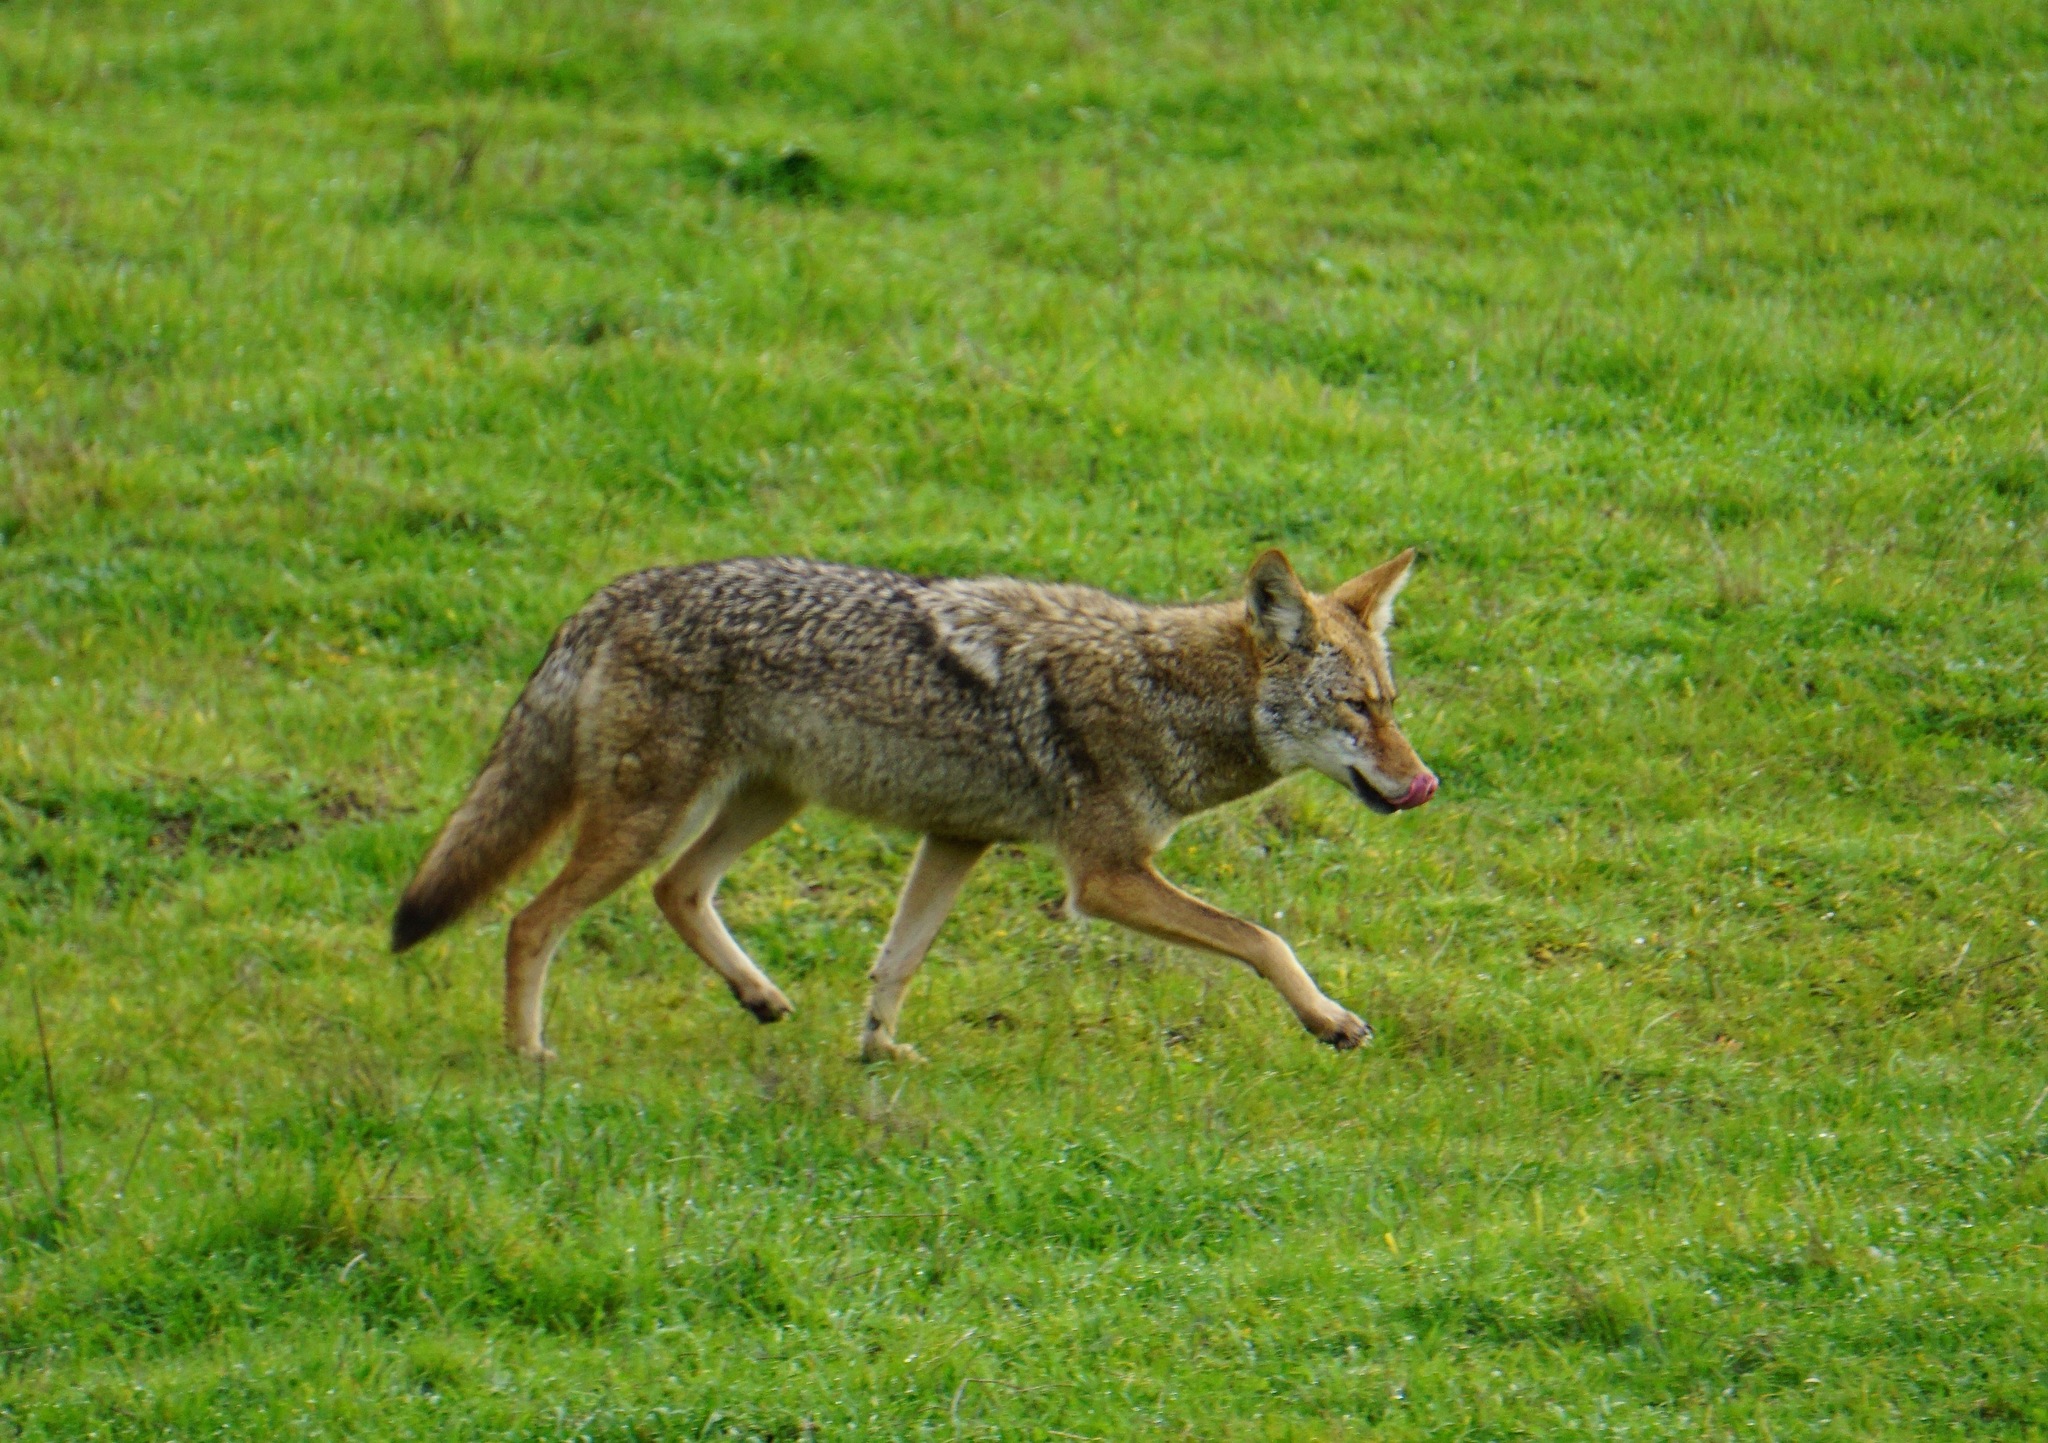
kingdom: Animalia
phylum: Chordata
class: Mammalia
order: Carnivora
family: Canidae
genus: Canis
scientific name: Canis latrans
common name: Coyote
